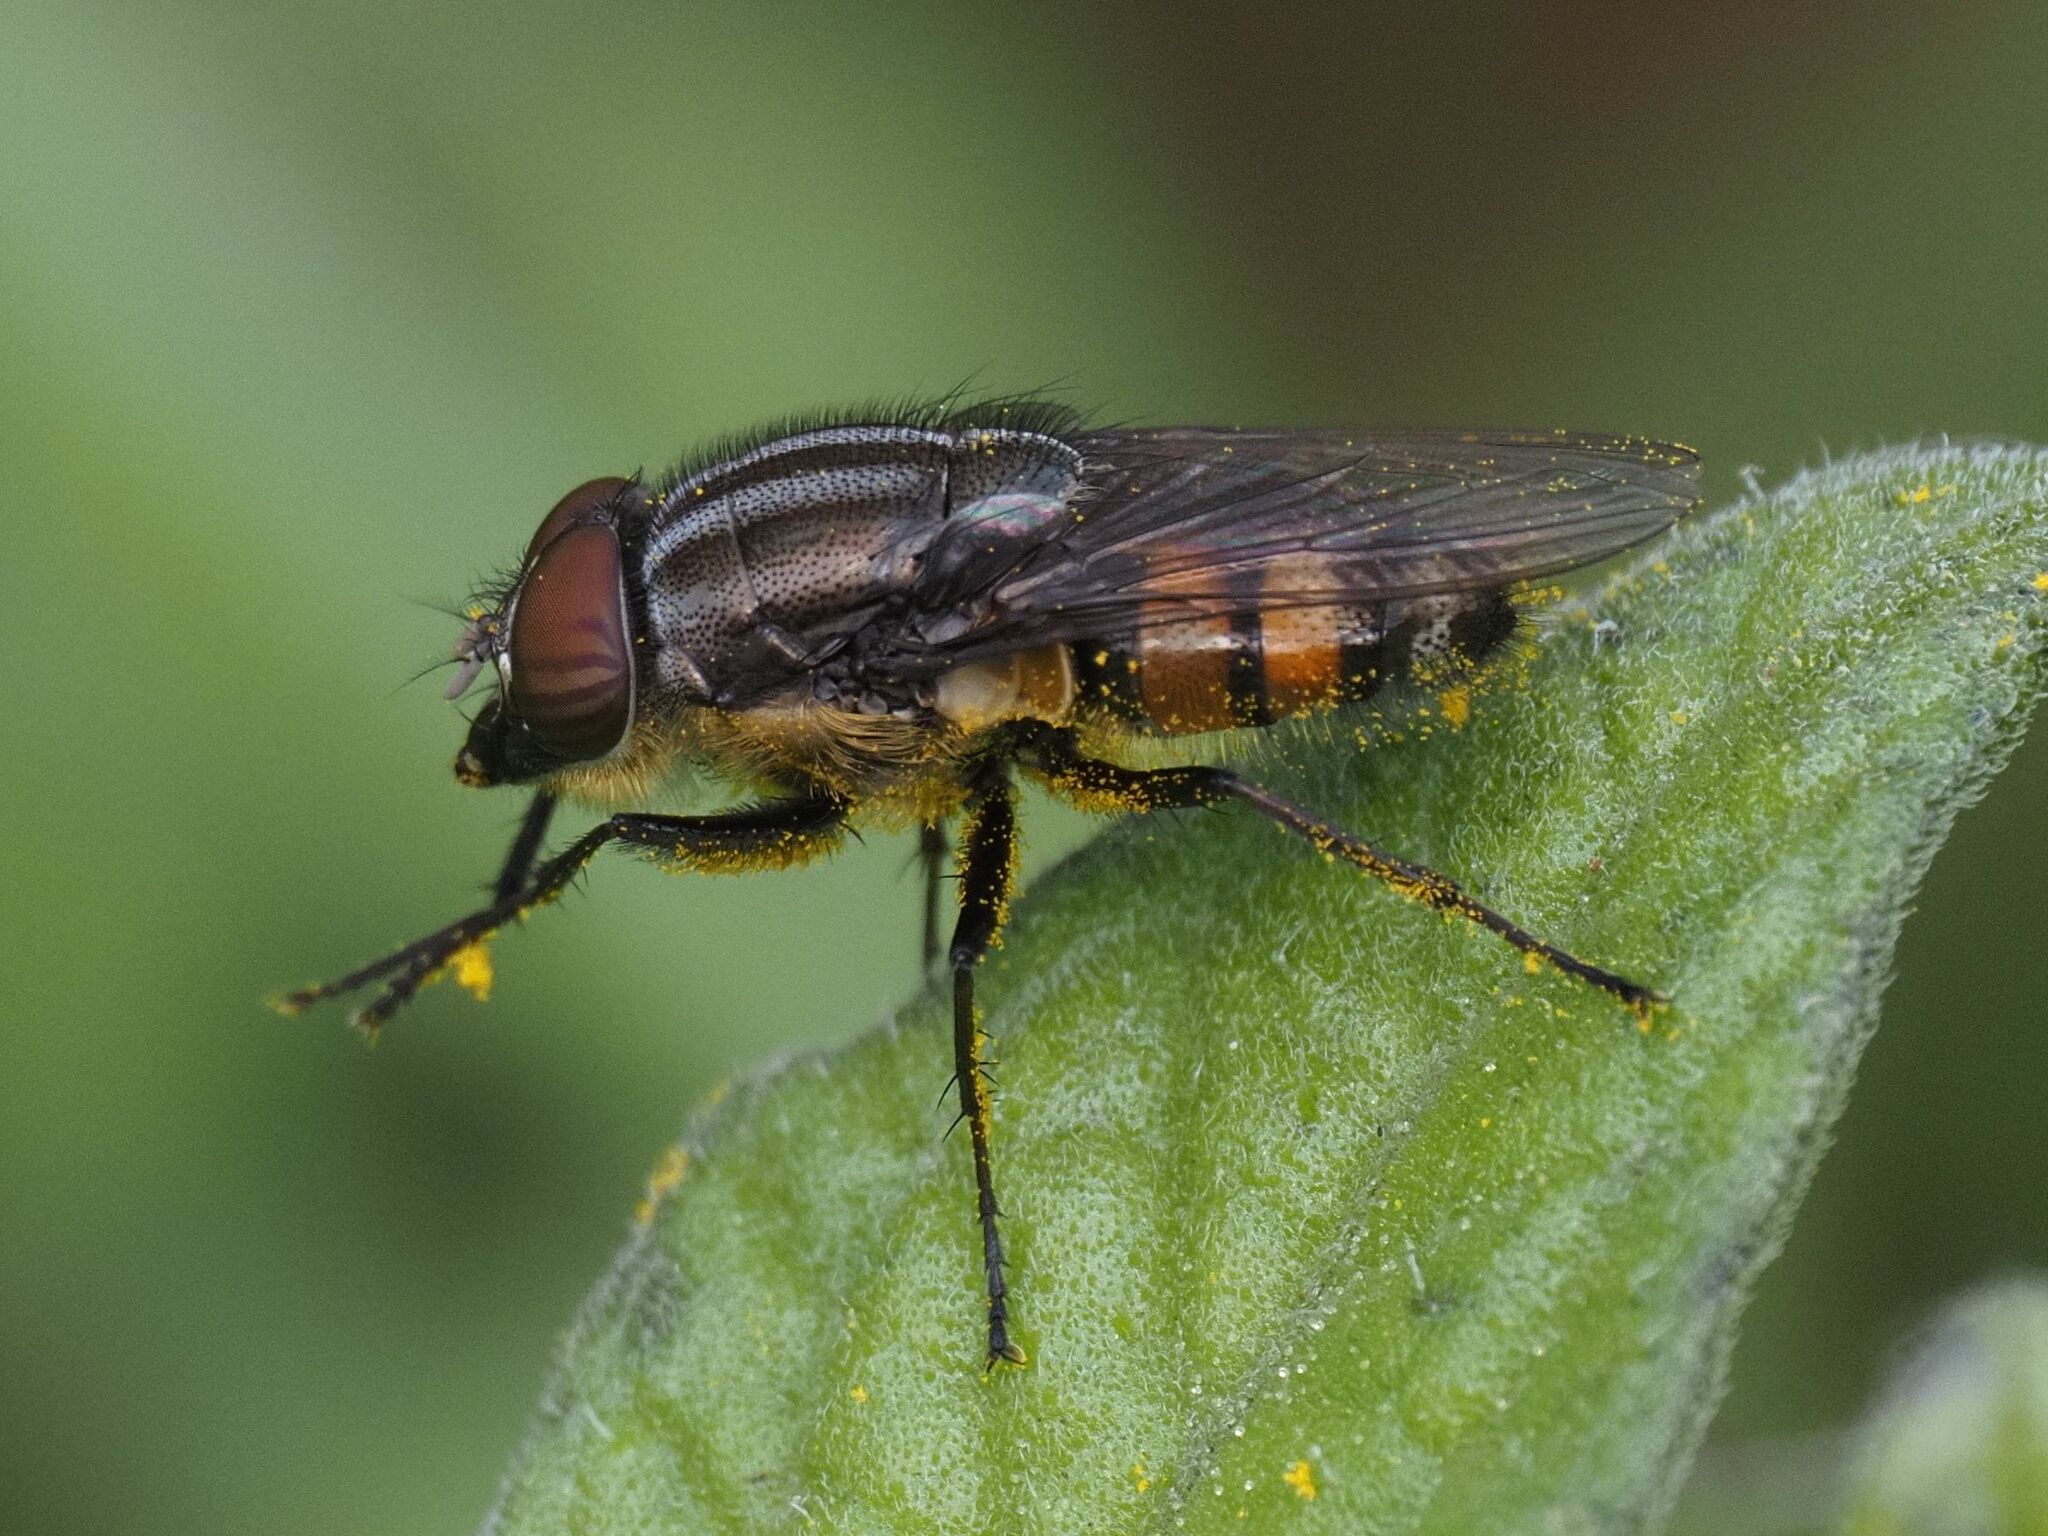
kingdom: Animalia
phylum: Arthropoda
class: Insecta
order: Diptera
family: Calliphoridae
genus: Stomorhina
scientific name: Stomorhina lunata
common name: Locust blowfly
